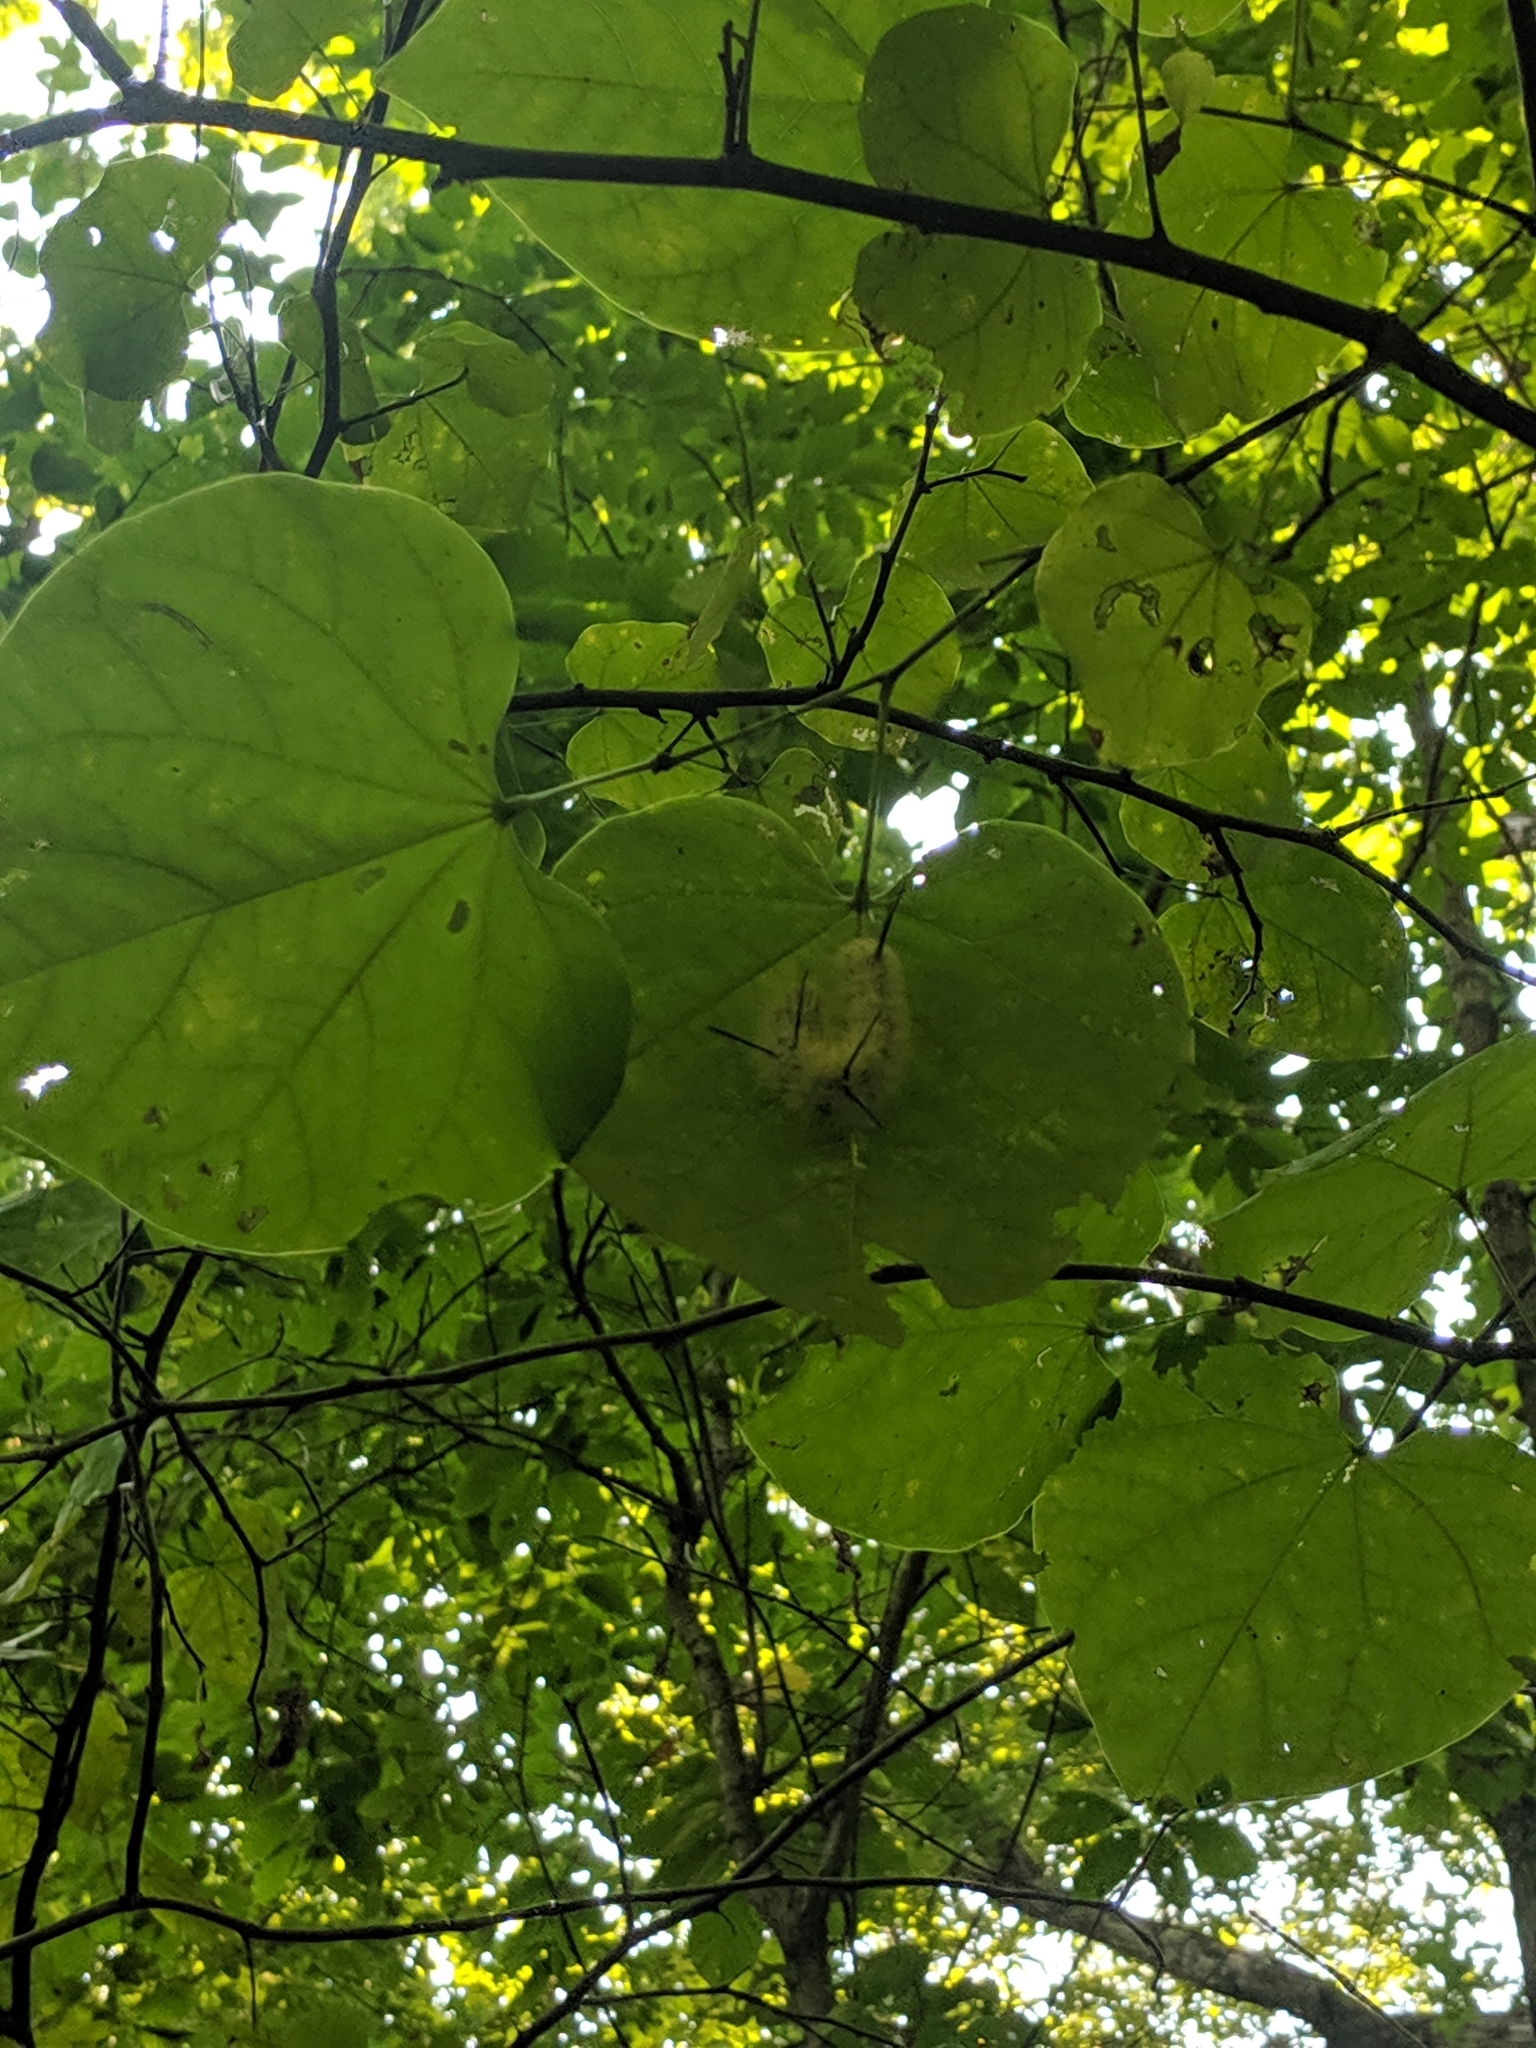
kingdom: Animalia
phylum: Arthropoda
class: Insecta
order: Lepidoptera
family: Noctuidae
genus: Acronicta
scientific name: Acronicta americana
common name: American dagger
